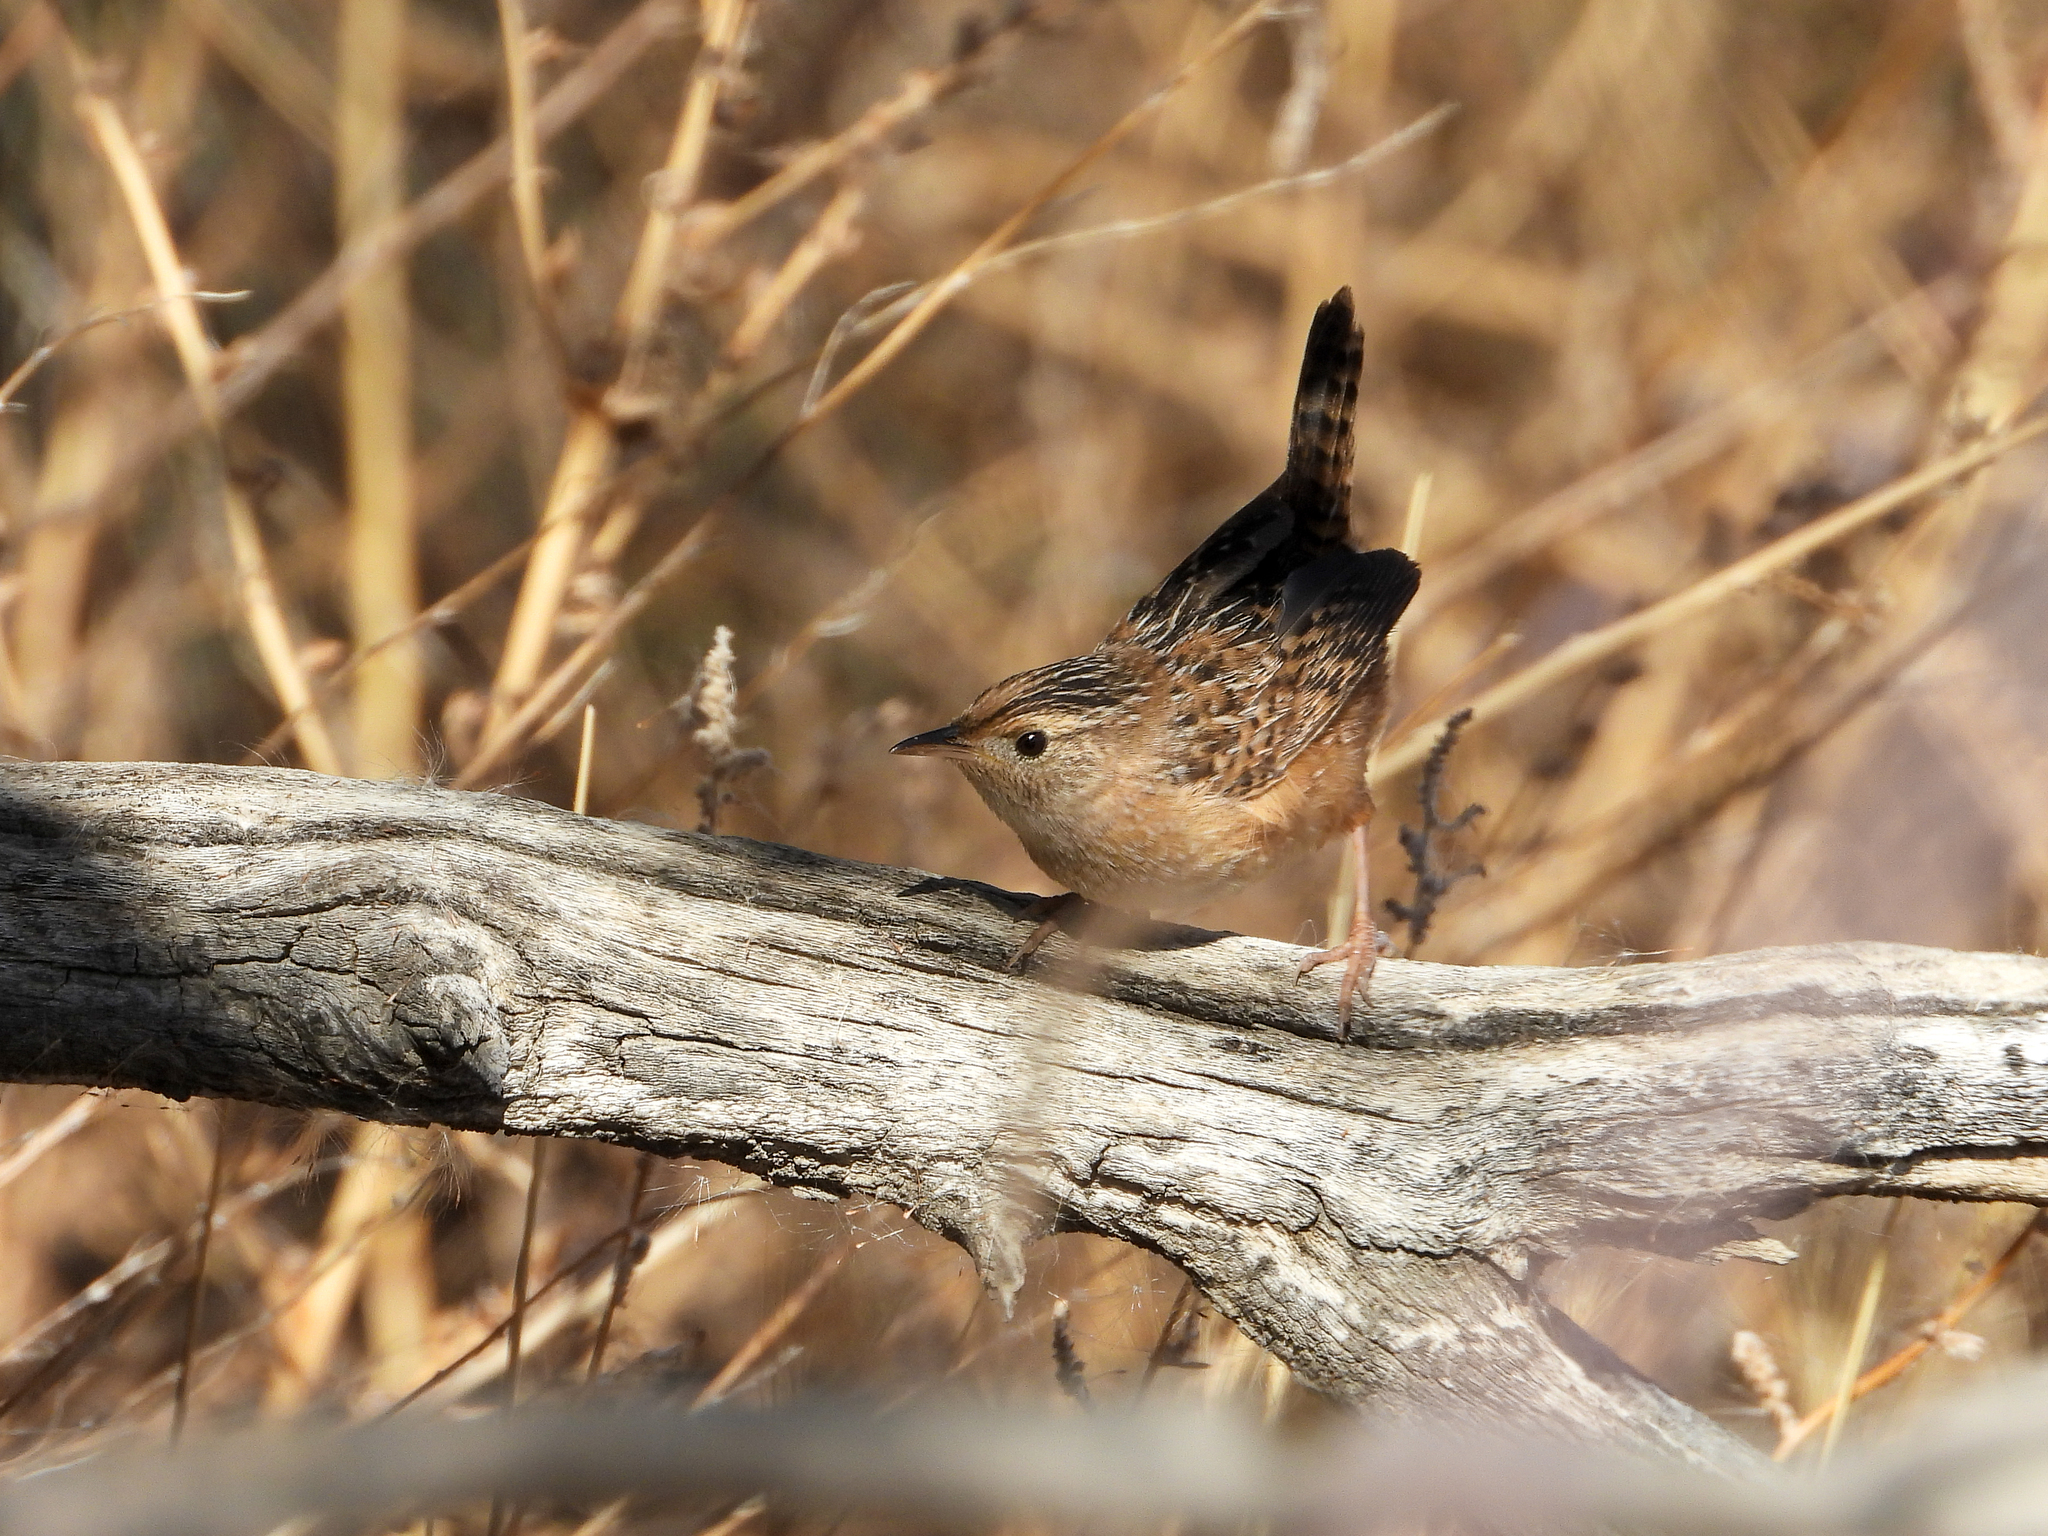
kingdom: Animalia
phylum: Chordata
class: Aves
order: Passeriformes
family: Troglodytidae
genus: Cistothorus
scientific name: Cistothorus platensis
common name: Sedge wren
